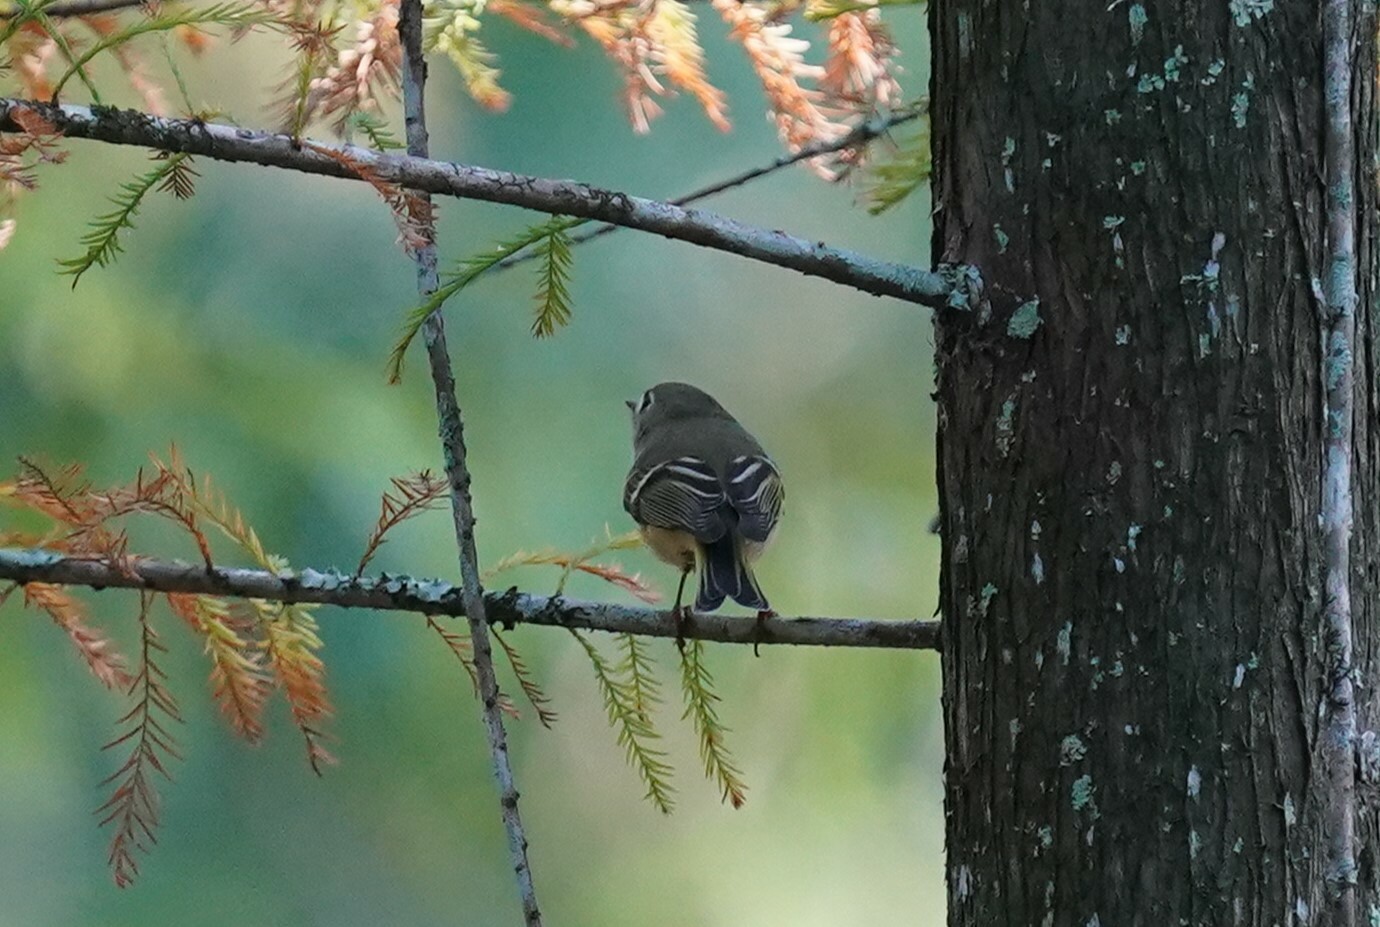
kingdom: Animalia
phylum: Chordata
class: Aves
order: Passeriformes
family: Regulidae
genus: Regulus
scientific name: Regulus calendula
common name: Ruby-crowned kinglet
